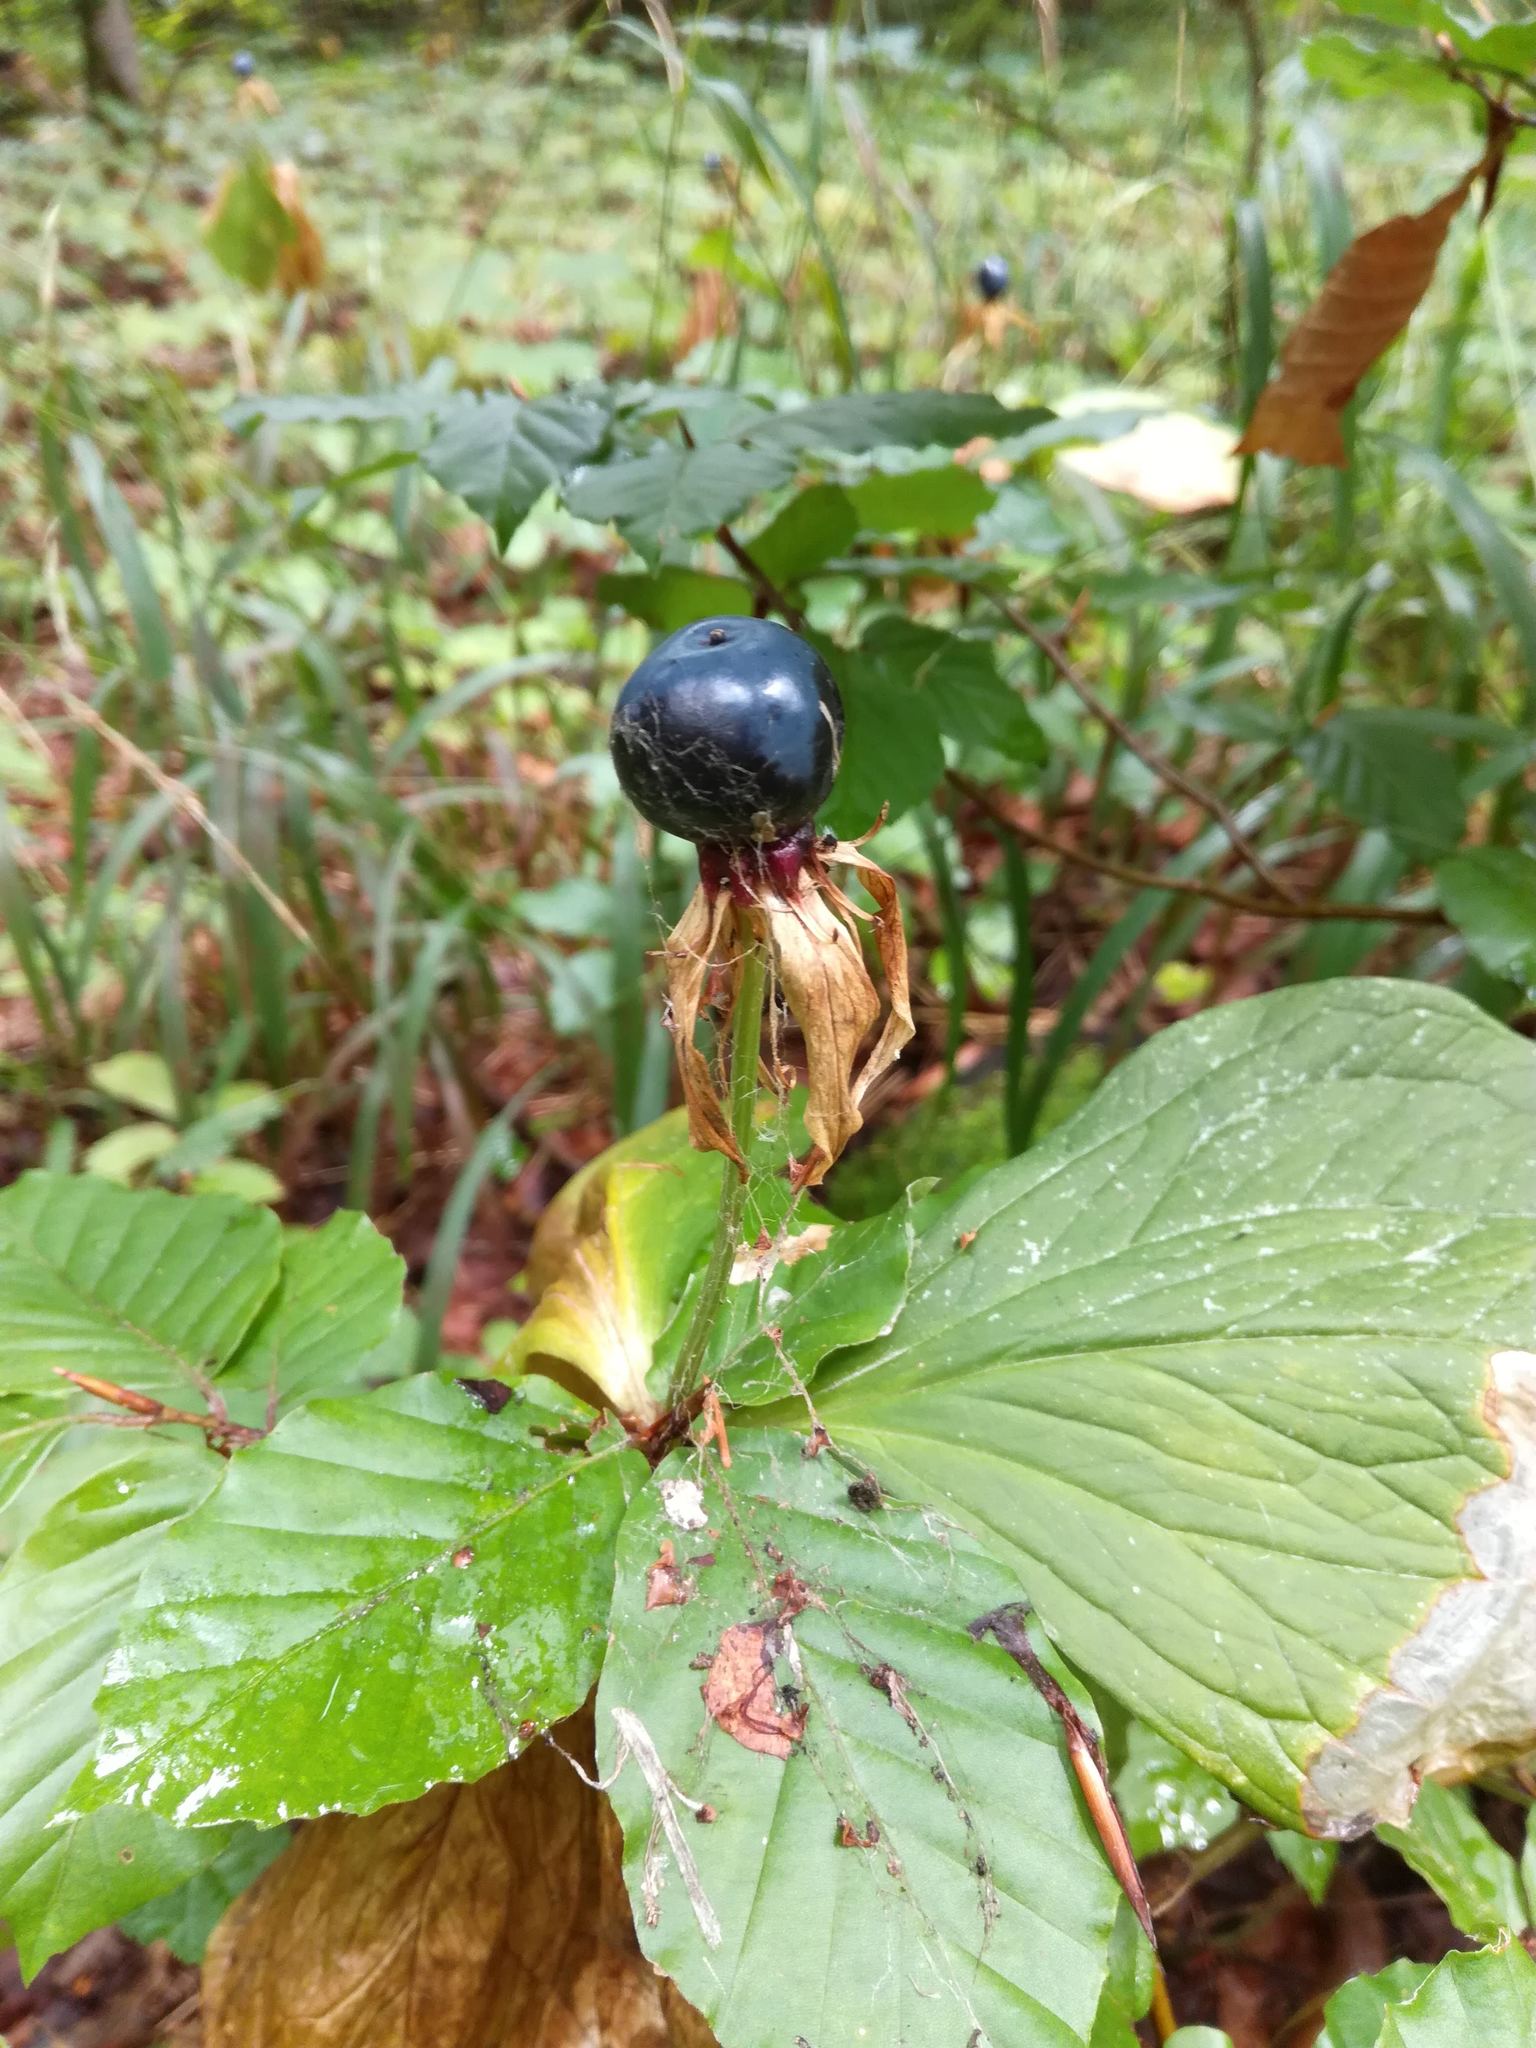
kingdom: Plantae
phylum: Tracheophyta
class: Liliopsida
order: Liliales
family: Melanthiaceae
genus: Paris
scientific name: Paris quadrifolia
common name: Herb-paris
